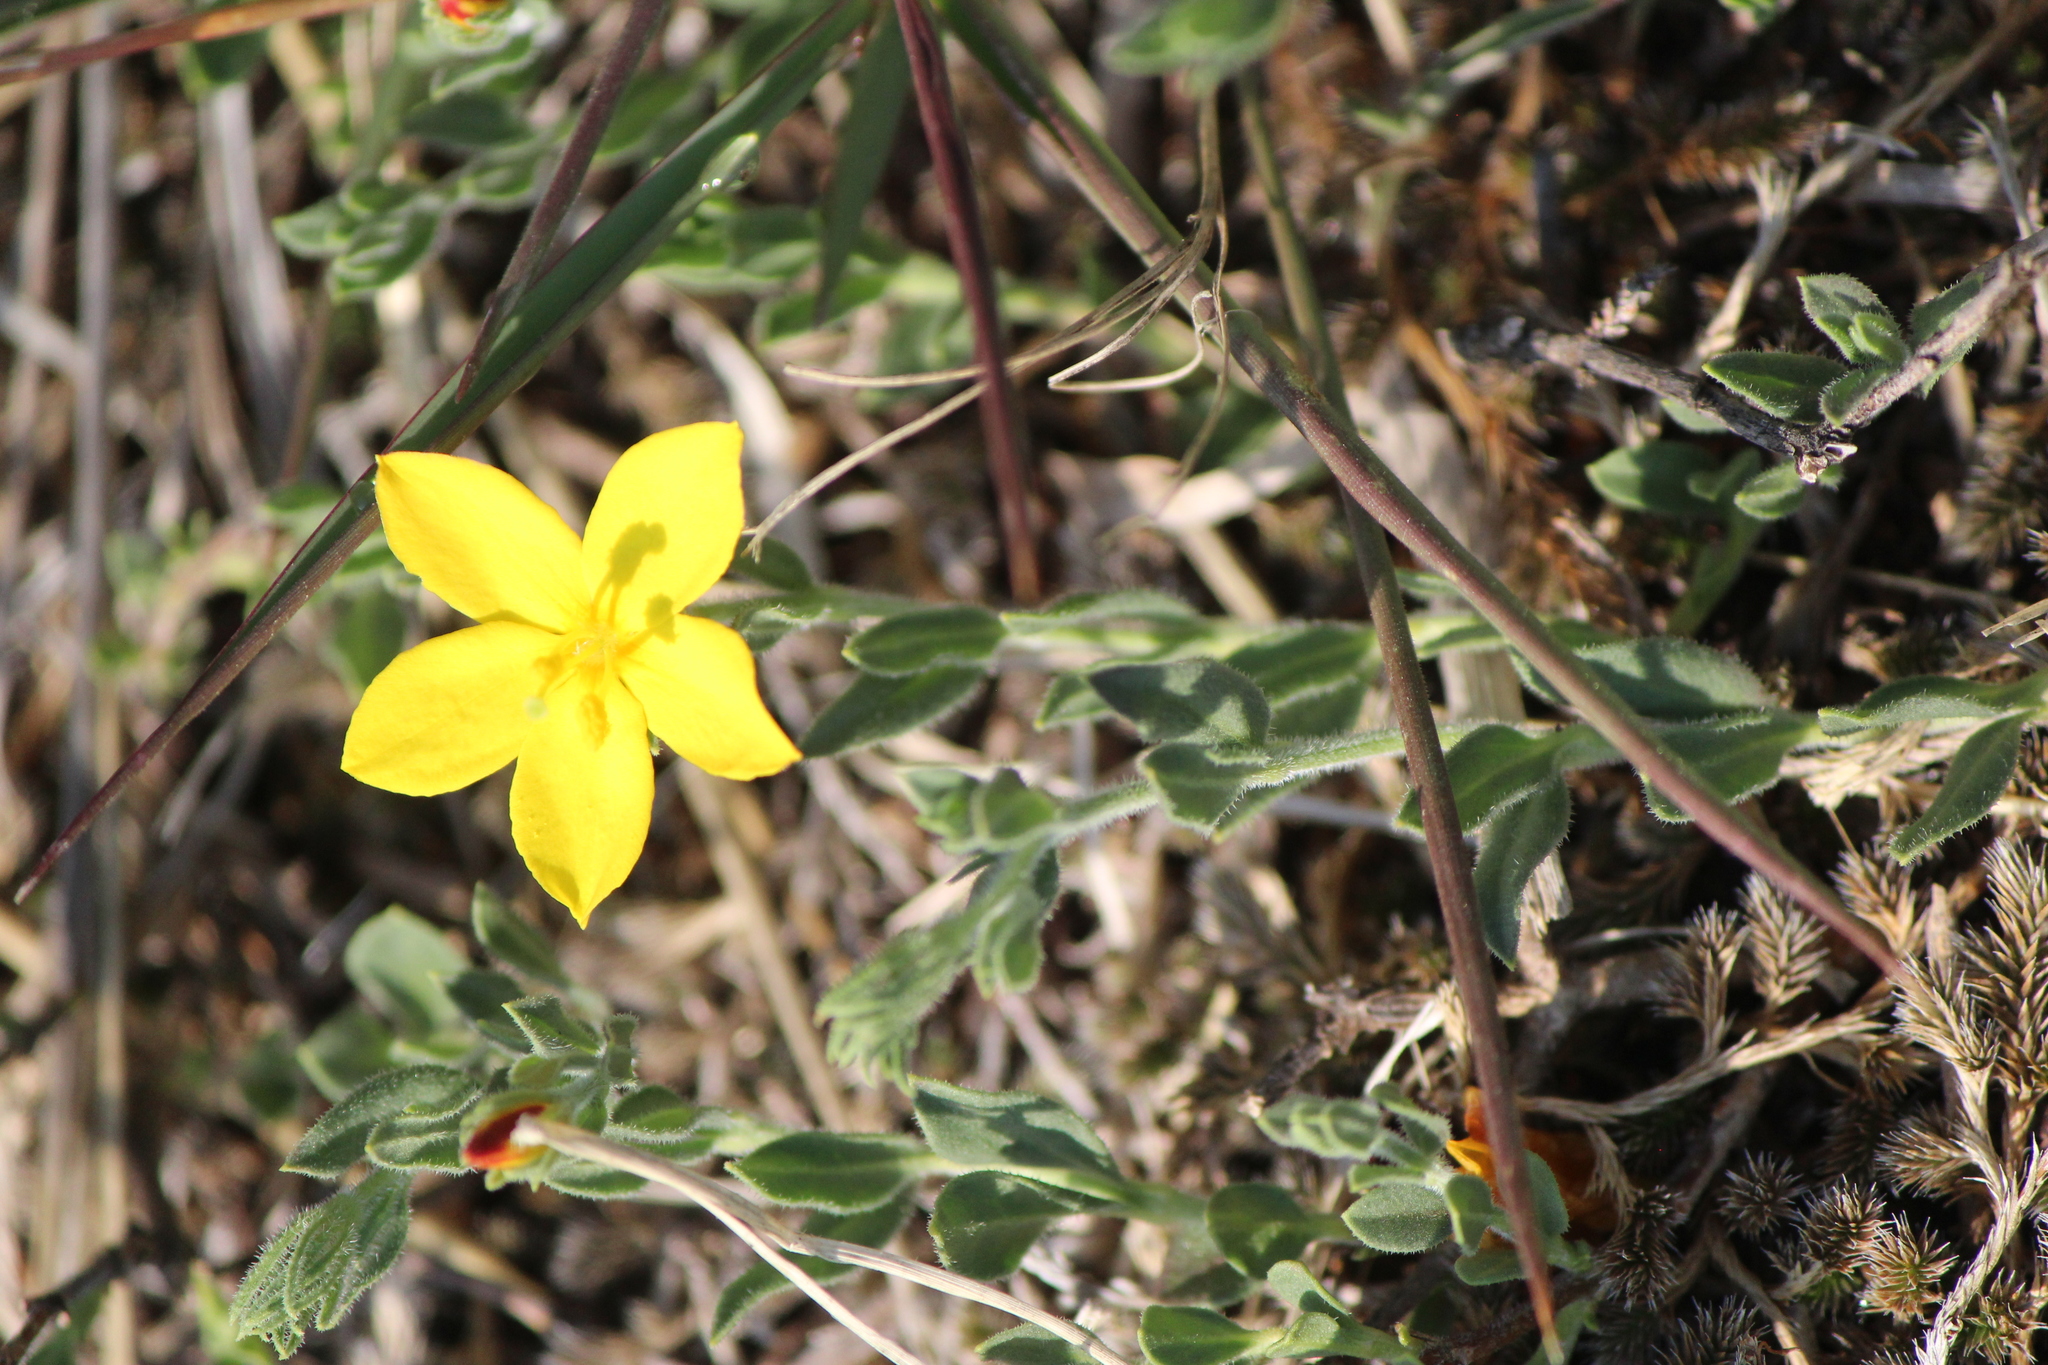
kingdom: Plantae
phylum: Tracheophyta
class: Magnoliopsida
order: Lamiales
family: Oleaceae
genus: Menodora
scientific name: Menodora scabra
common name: Rough menodora
